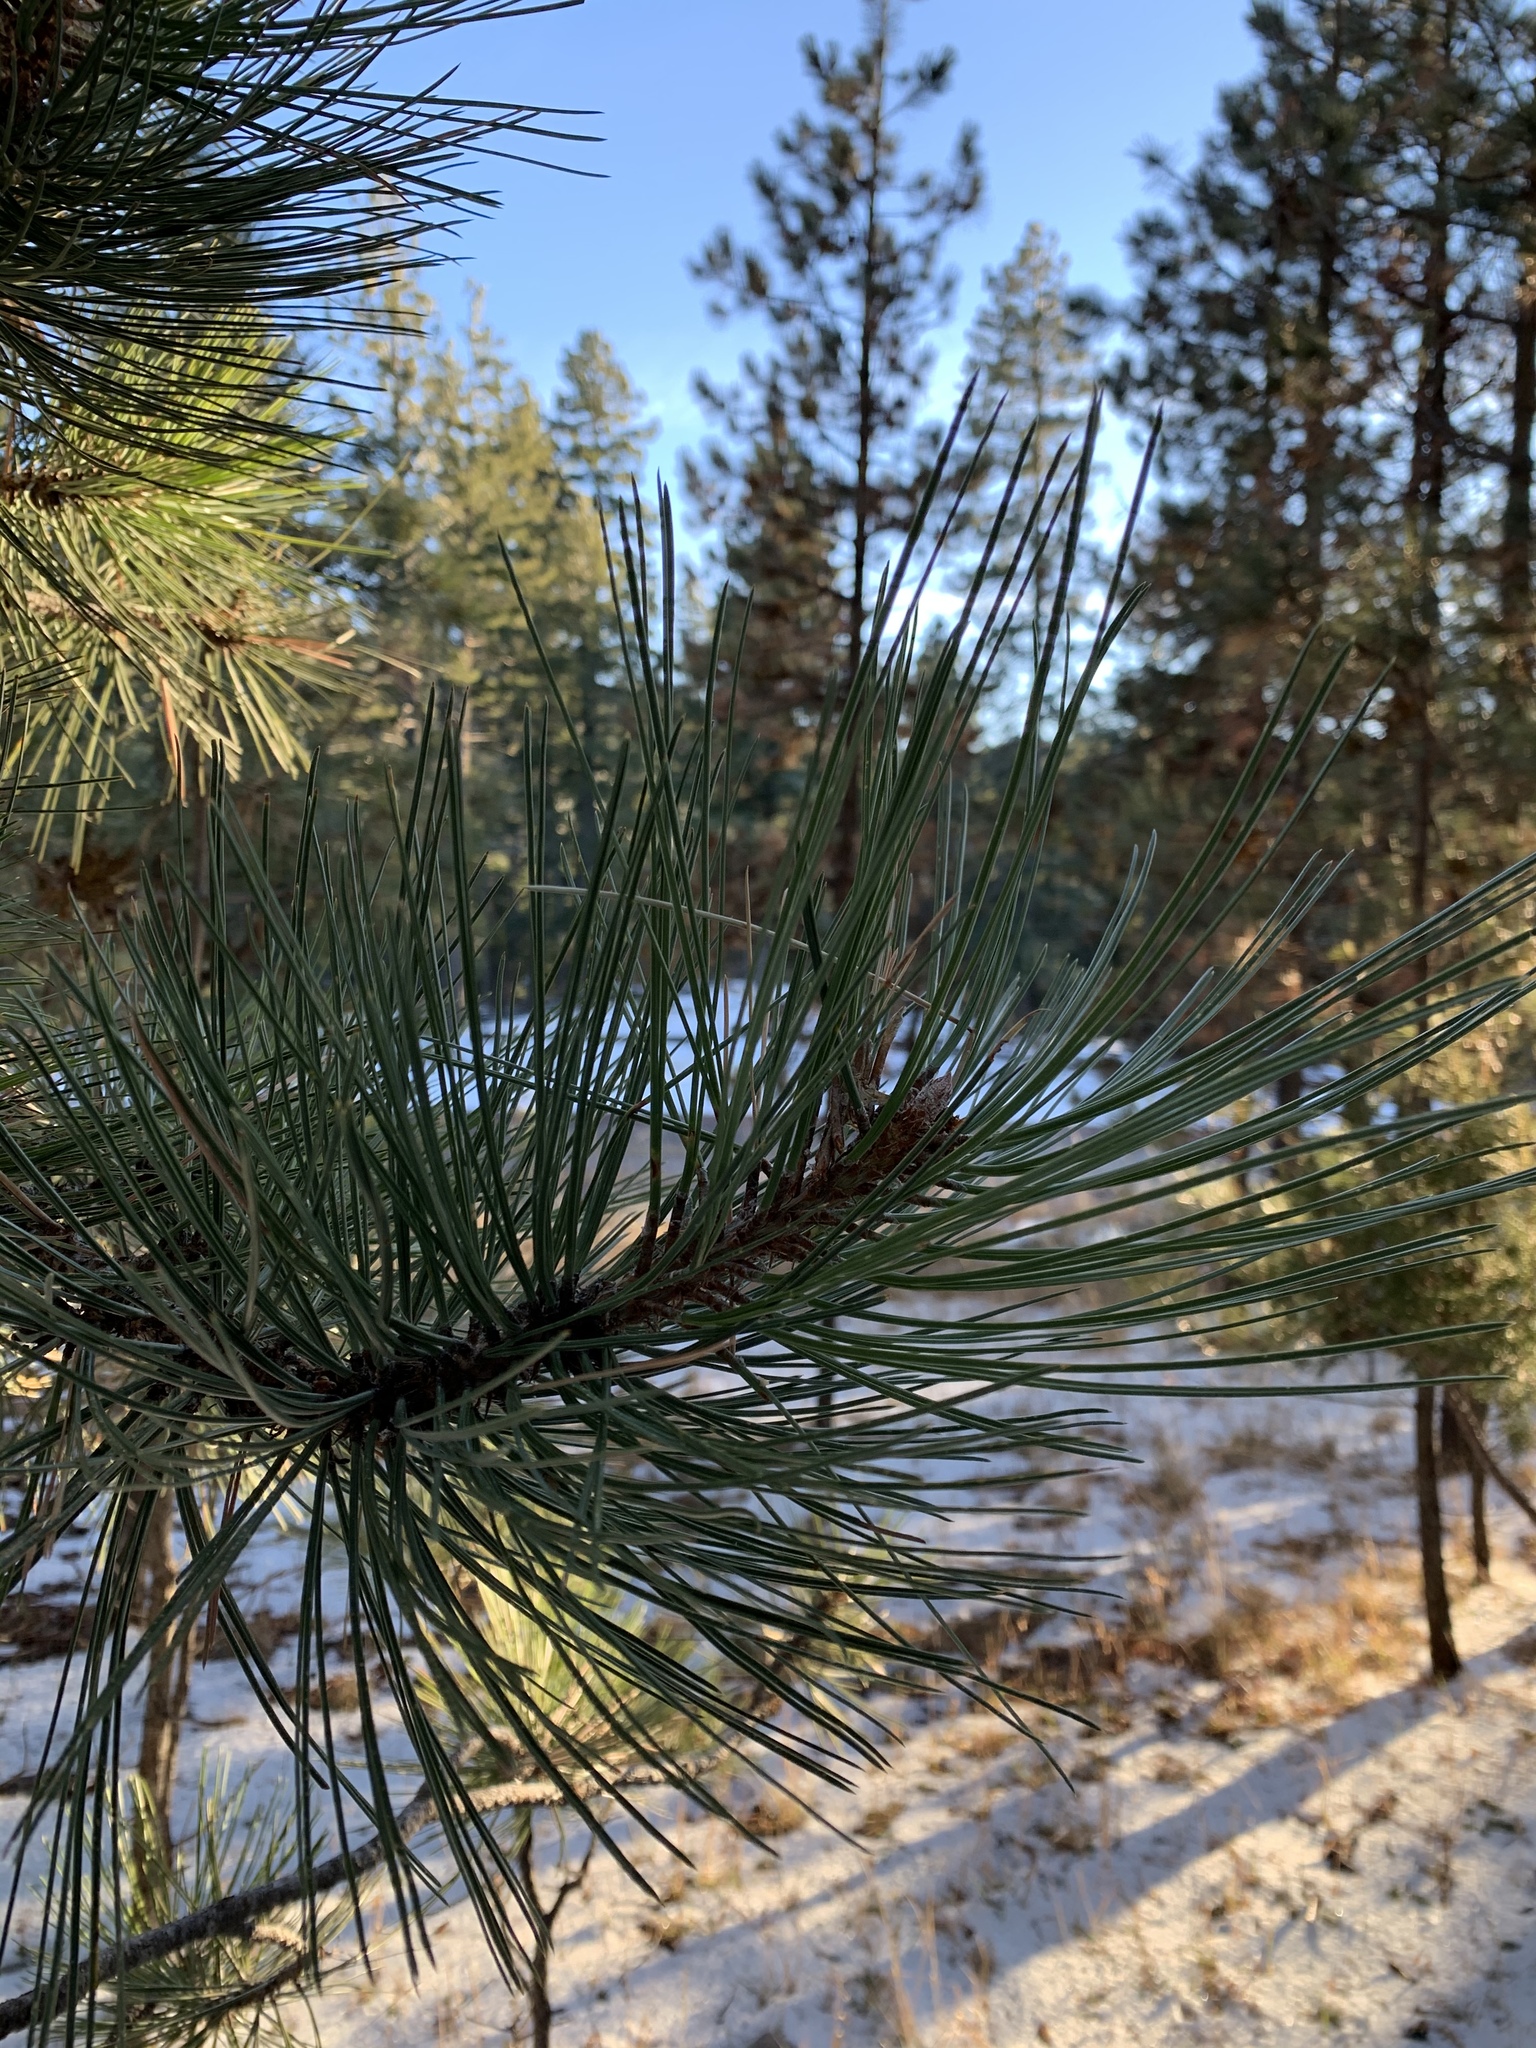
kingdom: Plantae
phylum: Tracheophyta
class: Pinopsida
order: Pinales
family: Pinaceae
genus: Pinus
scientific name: Pinus ponderosa
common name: Western yellow-pine
